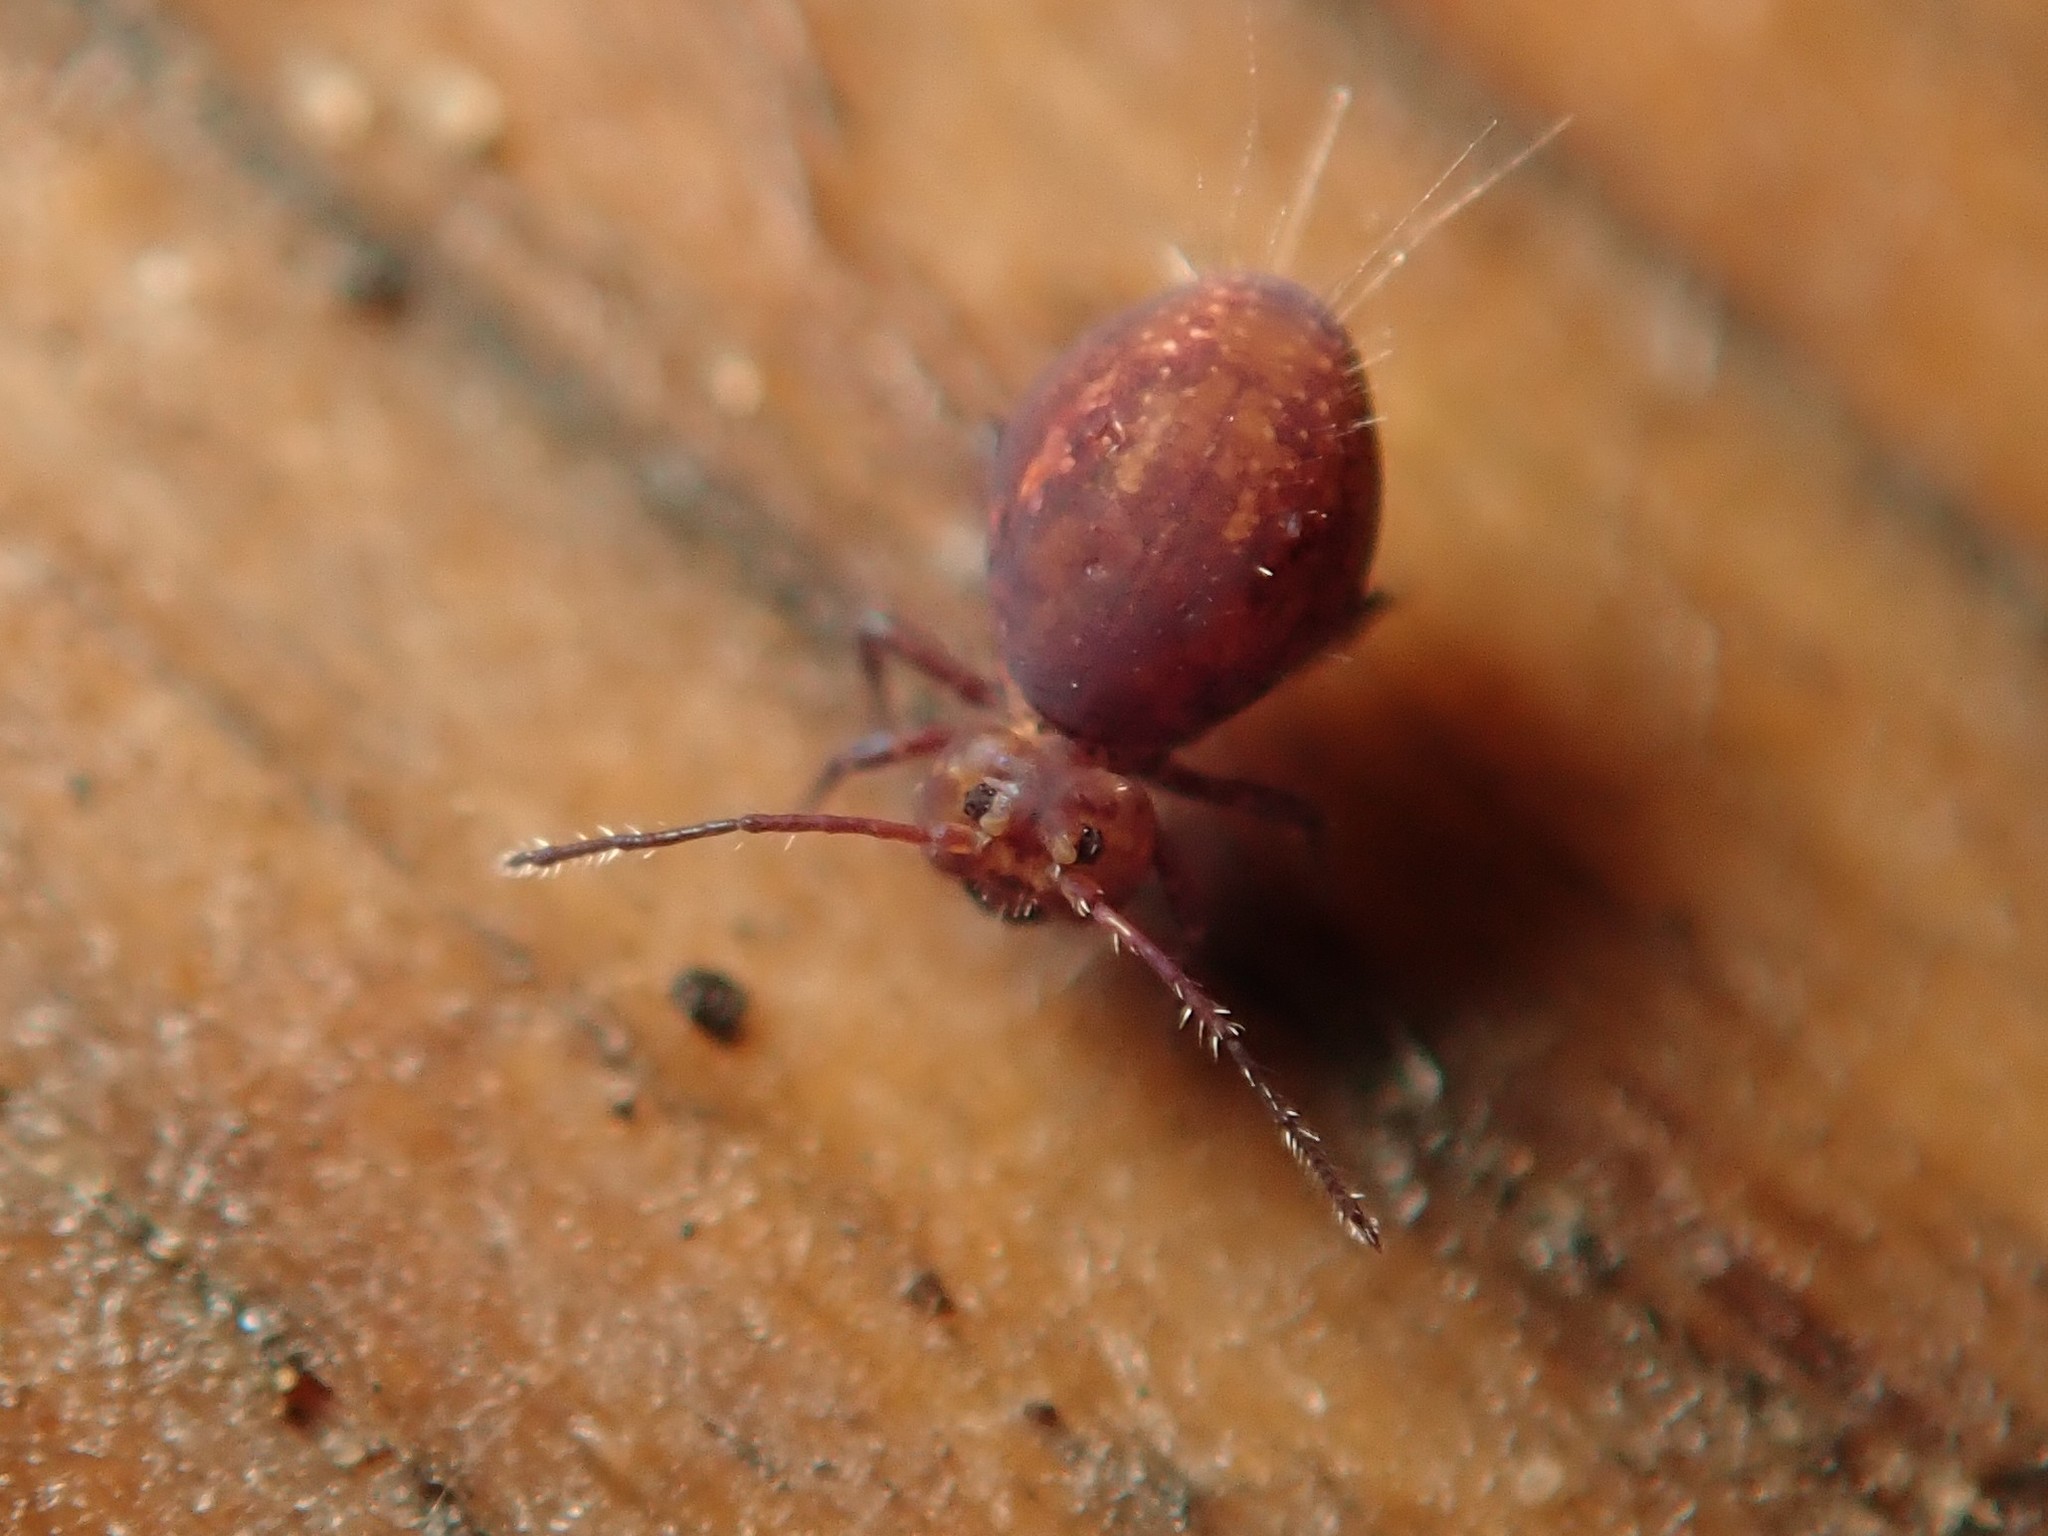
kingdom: Animalia
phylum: Arthropoda
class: Collembola
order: Symphypleona
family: Dicyrtomidae
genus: Dicyrtoma
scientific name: Dicyrtoma fusca
